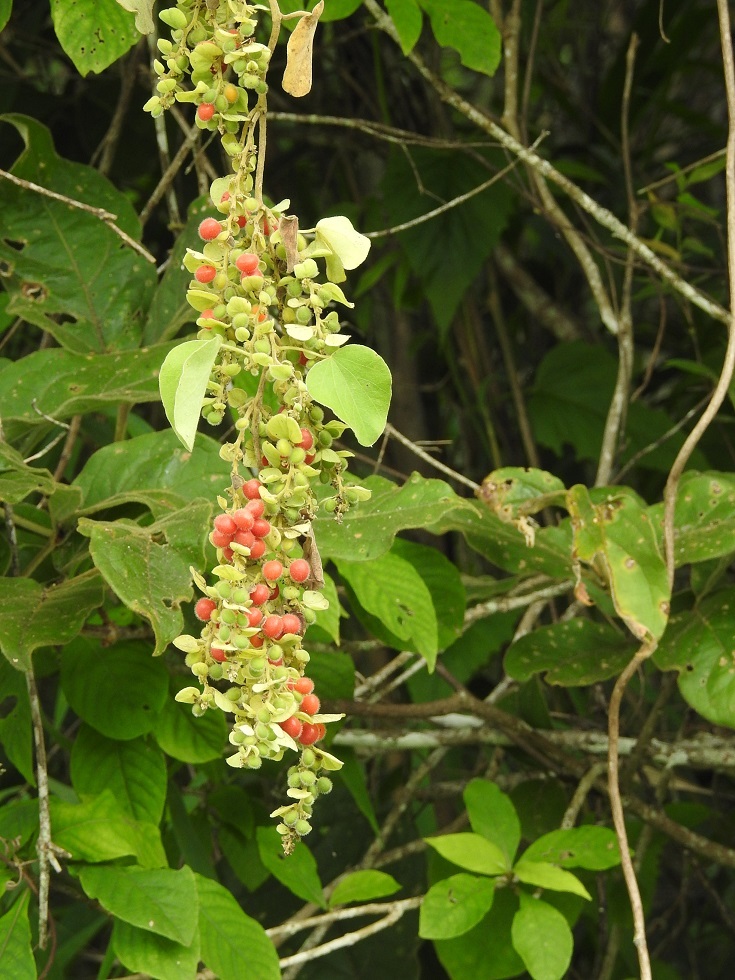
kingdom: Plantae
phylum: Tracheophyta
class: Magnoliopsida
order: Ranunculales
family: Menispermaceae
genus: Cissampelos
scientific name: Cissampelos pareira
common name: Velvetleaf
